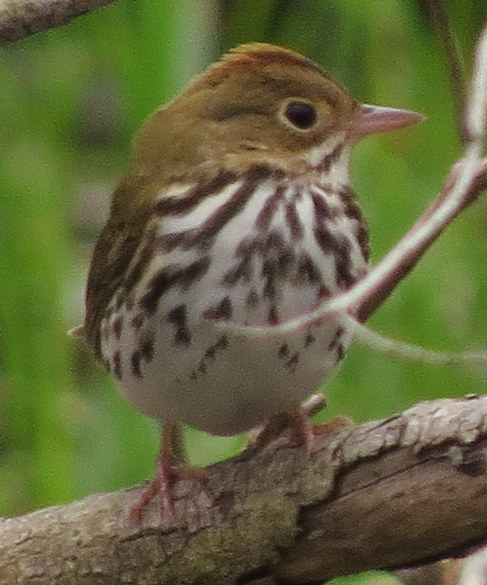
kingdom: Animalia
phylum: Chordata
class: Aves
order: Passeriformes
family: Parulidae
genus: Seiurus
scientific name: Seiurus aurocapilla
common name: Ovenbird
